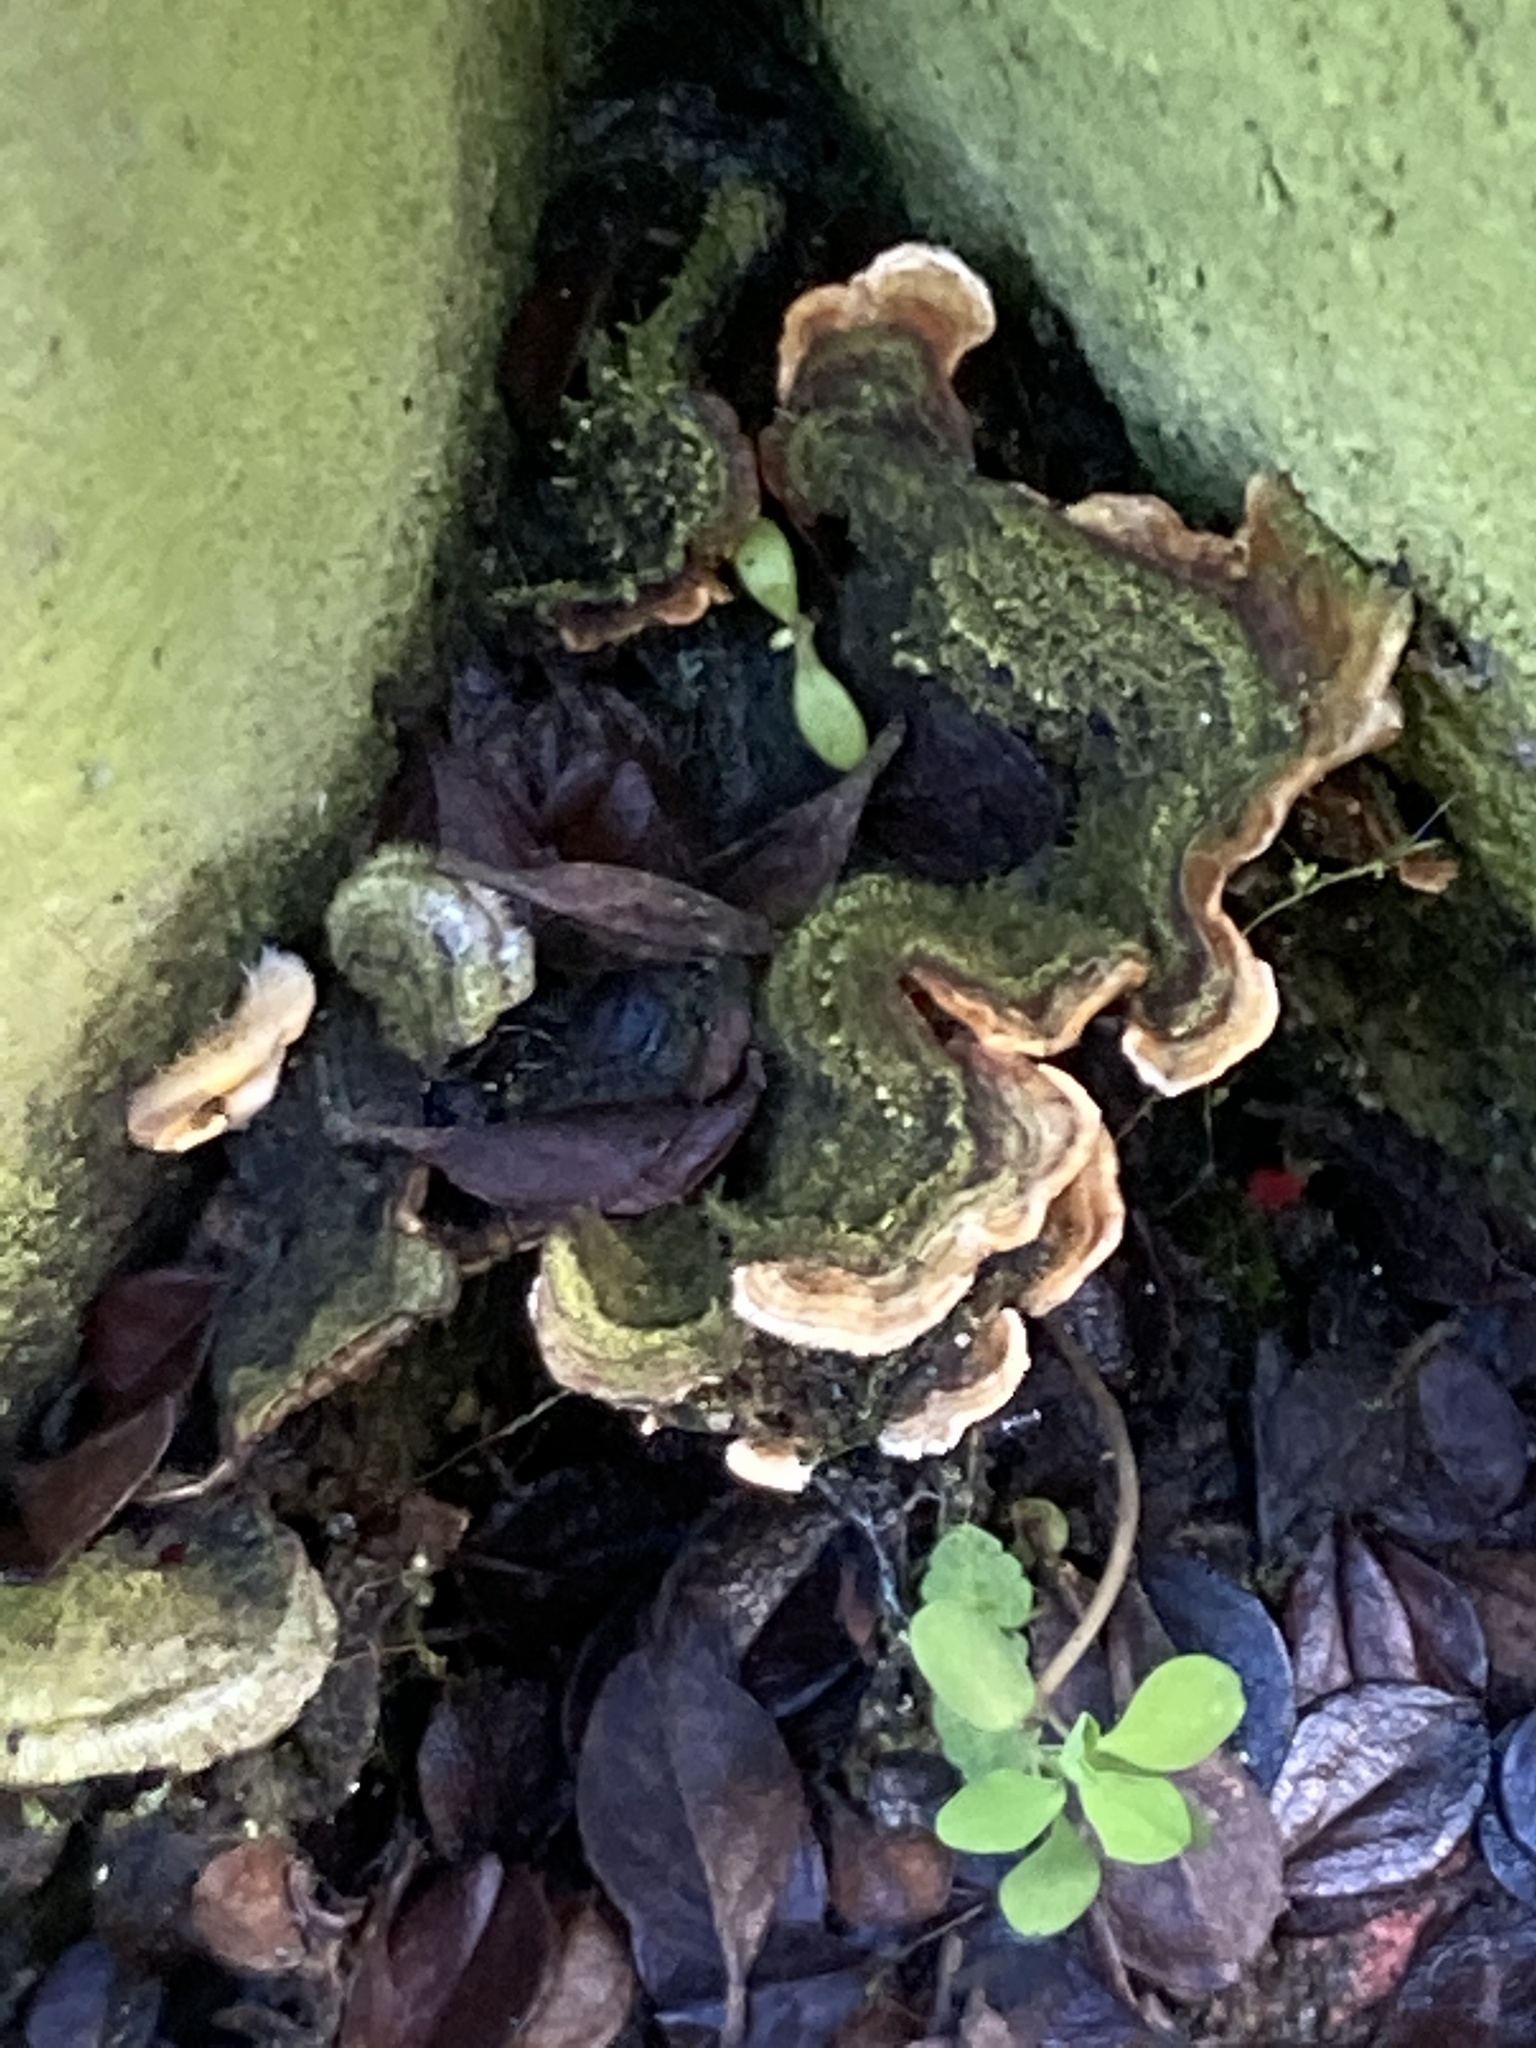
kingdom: Fungi
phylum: Basidiomycota
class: Agaricomycetes
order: Russulales
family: Stereaceae
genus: Stereum
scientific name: Stereum hirsutum
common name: Hairy curtain crust
